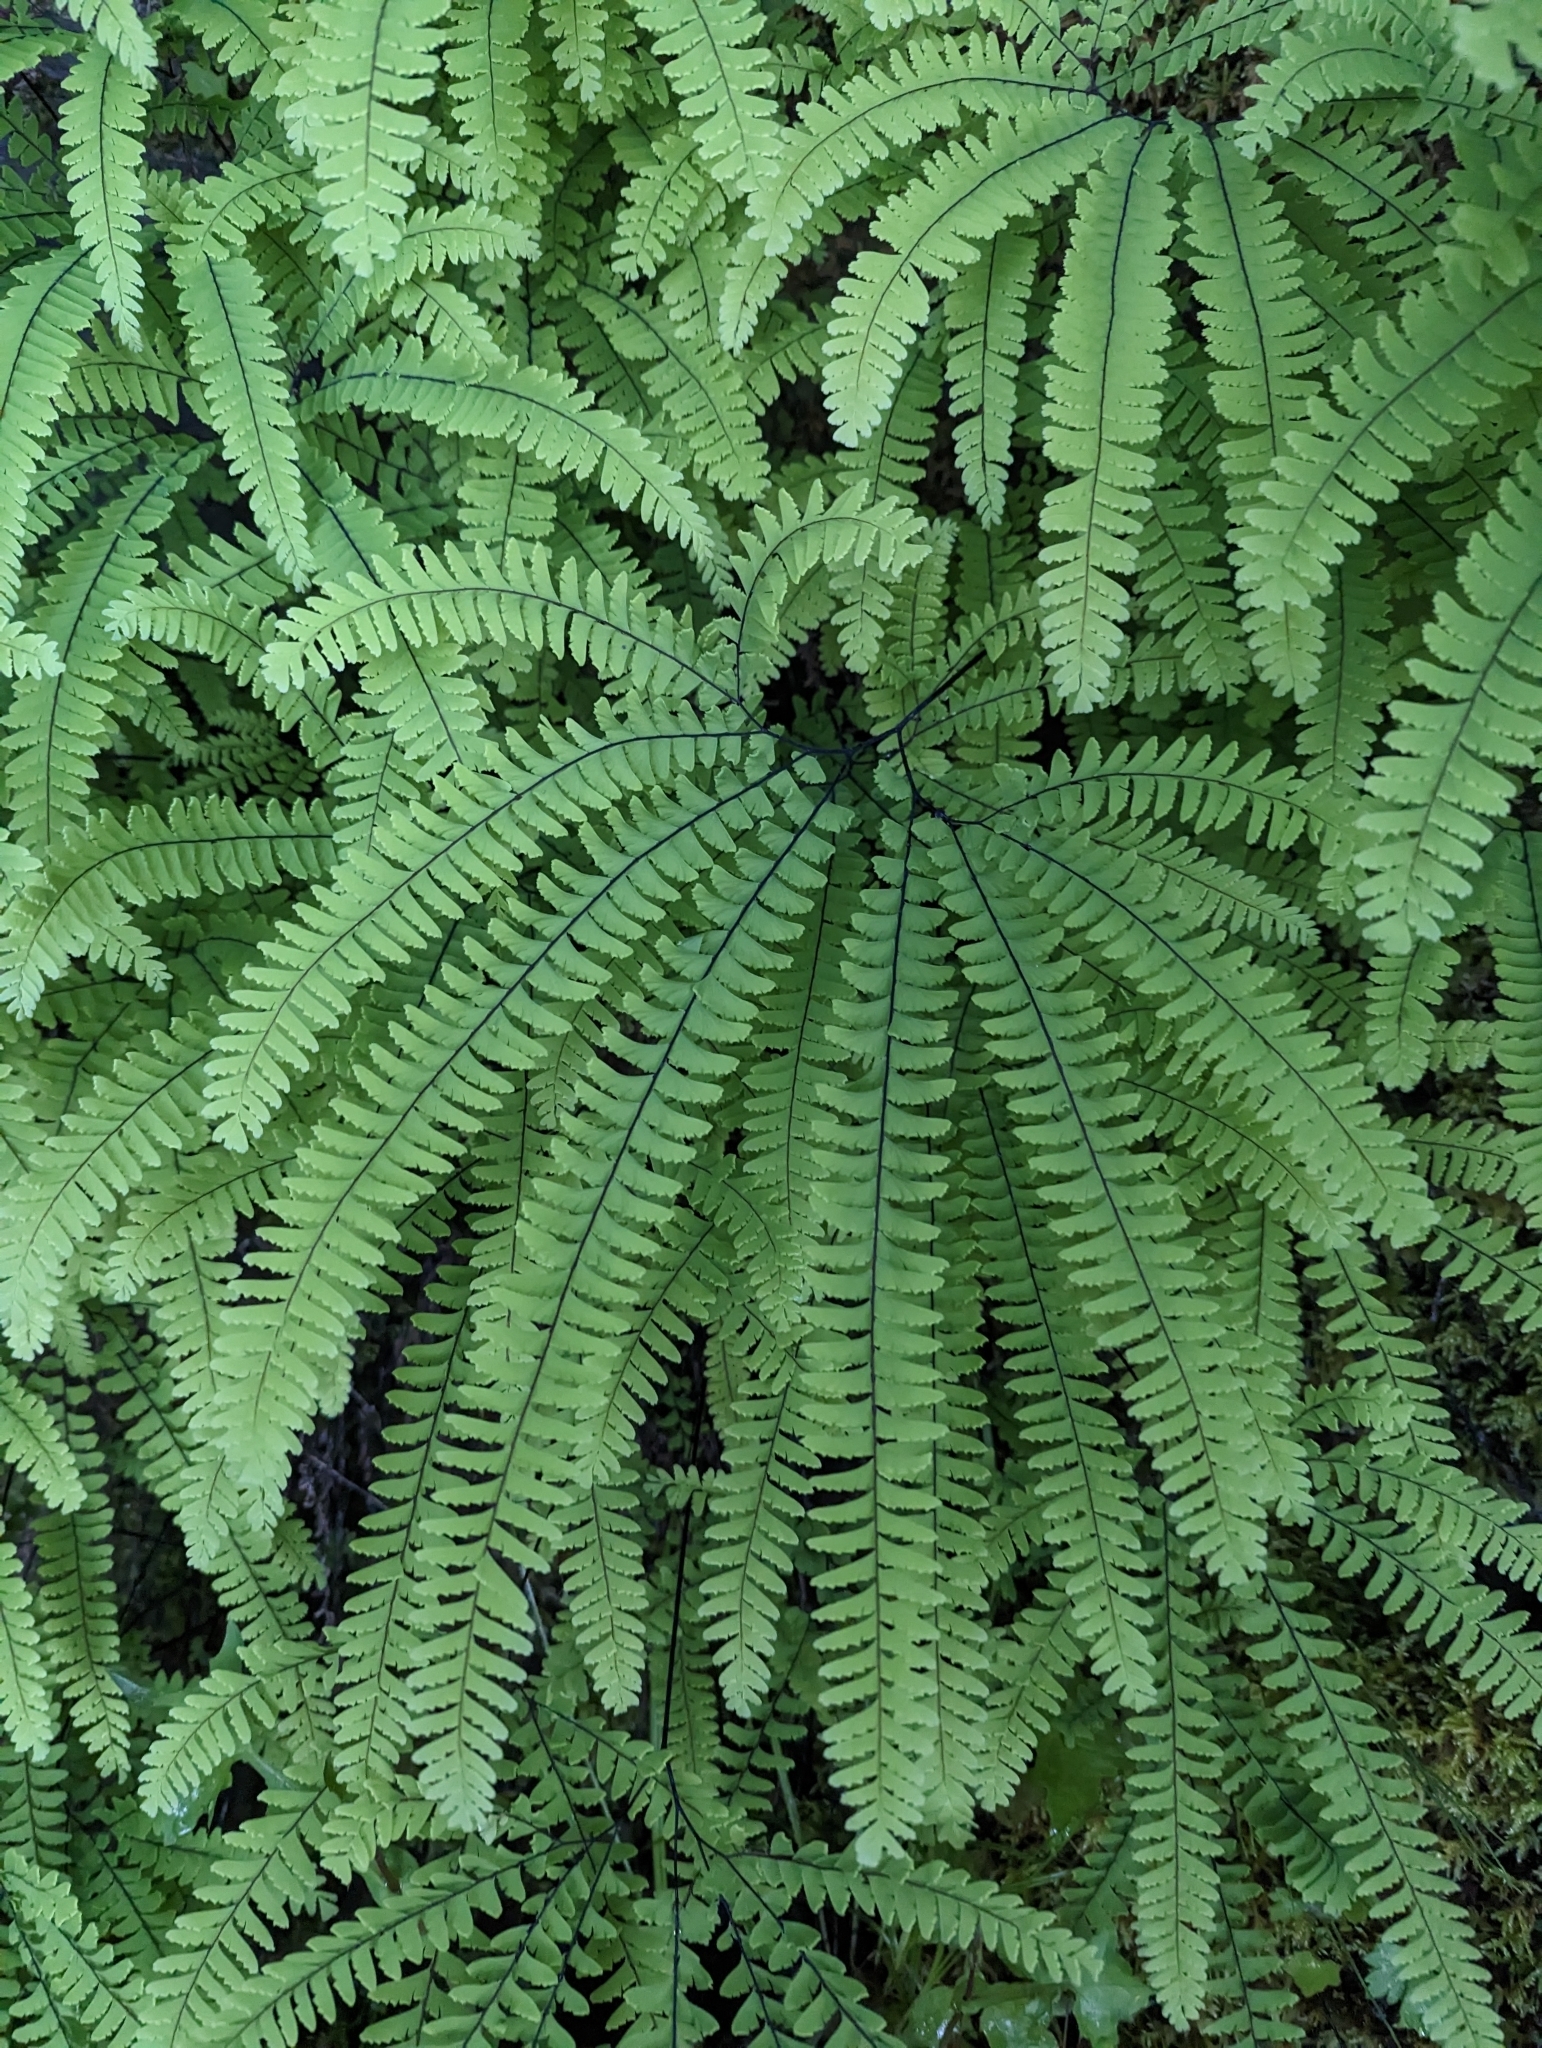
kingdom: Plantae
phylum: Tracheophyta
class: Polypodiopsida
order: Polypodiales
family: Pteridaceae
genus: Adiantum
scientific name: Adiantum aleuticum
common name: Aleutian maidenhair fern
